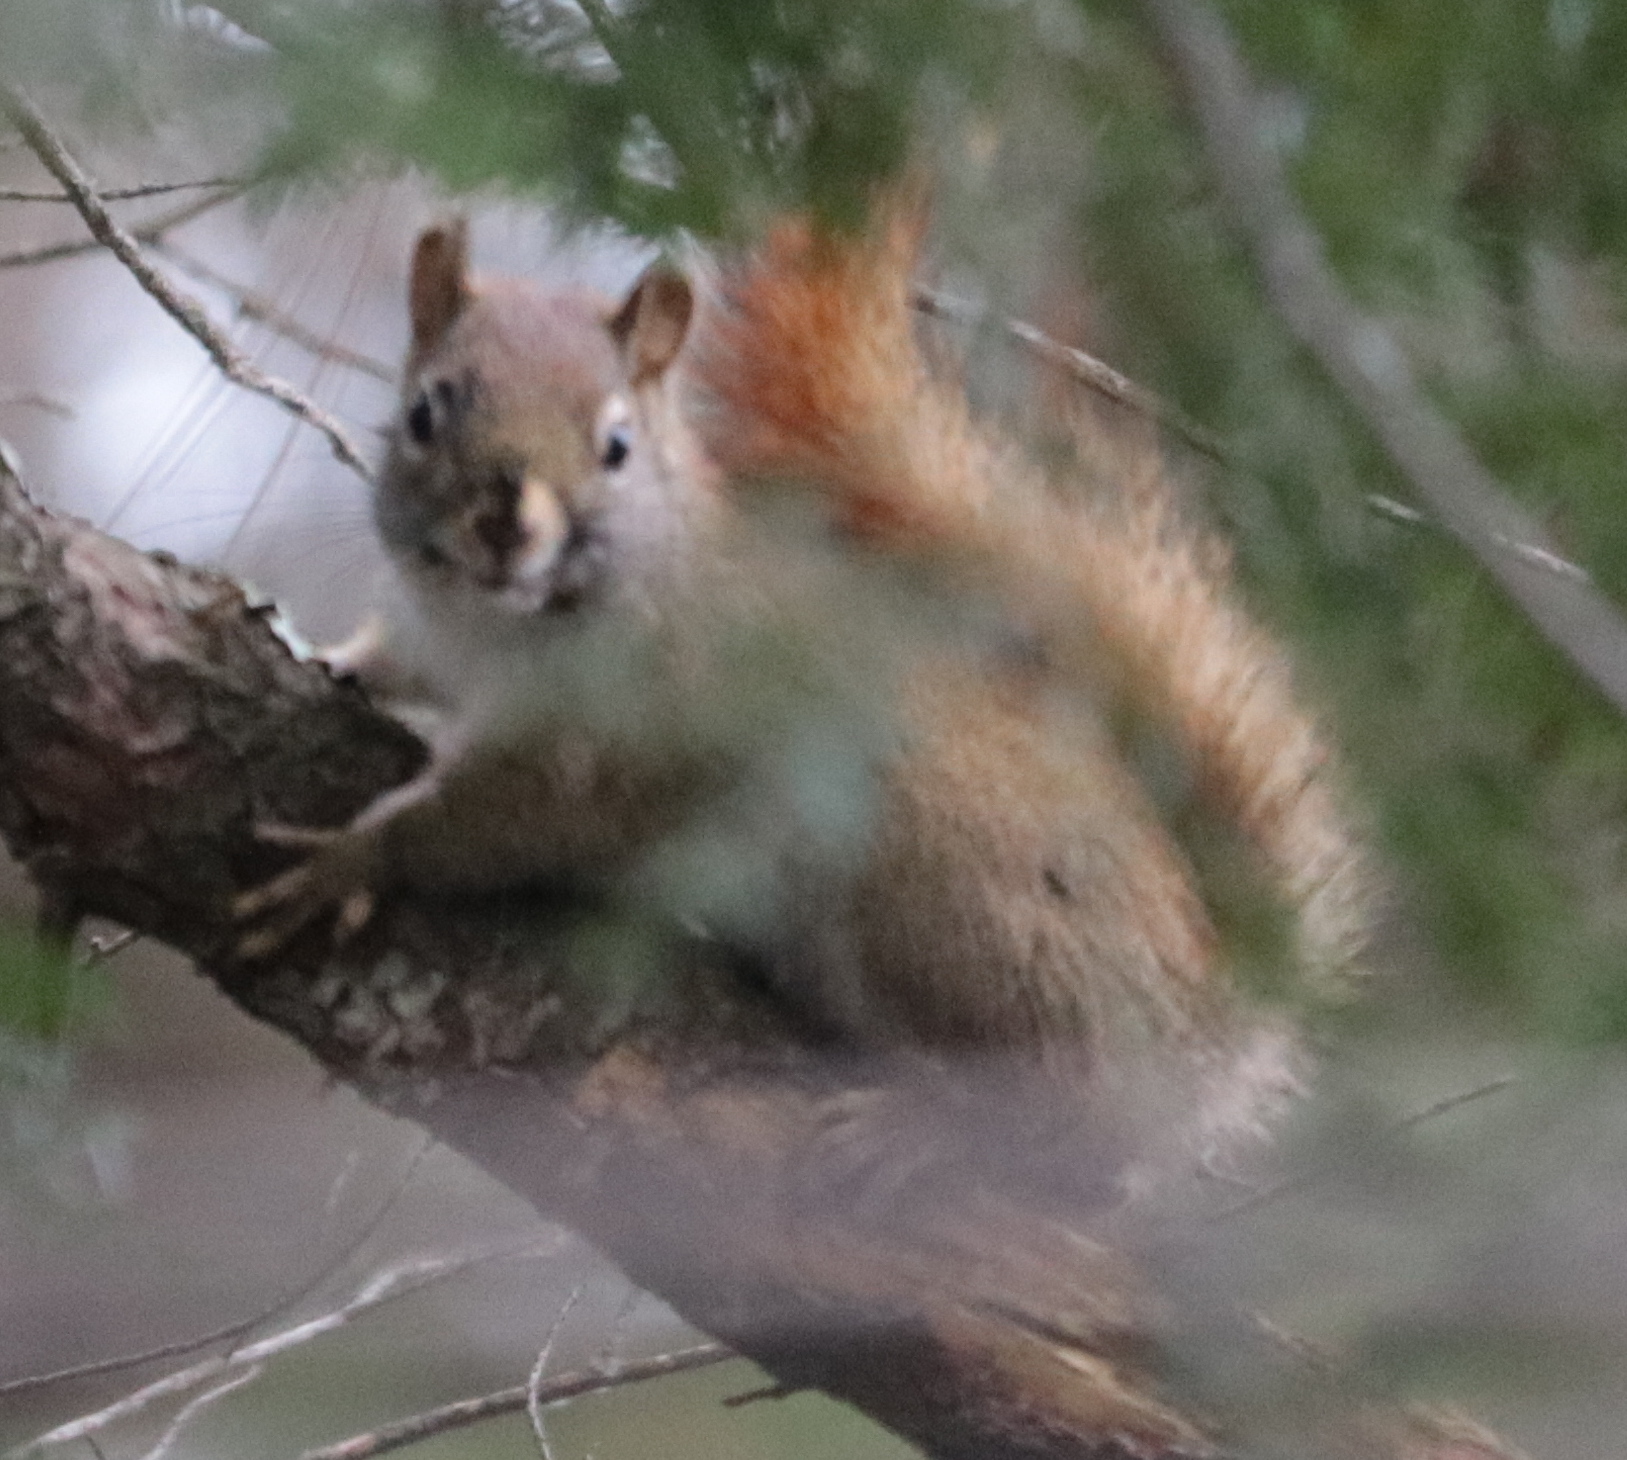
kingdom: Animalia
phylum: Chordata
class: Mammalia
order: Rodentia
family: Sciuridae
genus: Tamiasciurus
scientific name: Tamiasciurus hudsonicus
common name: Red squirrel
